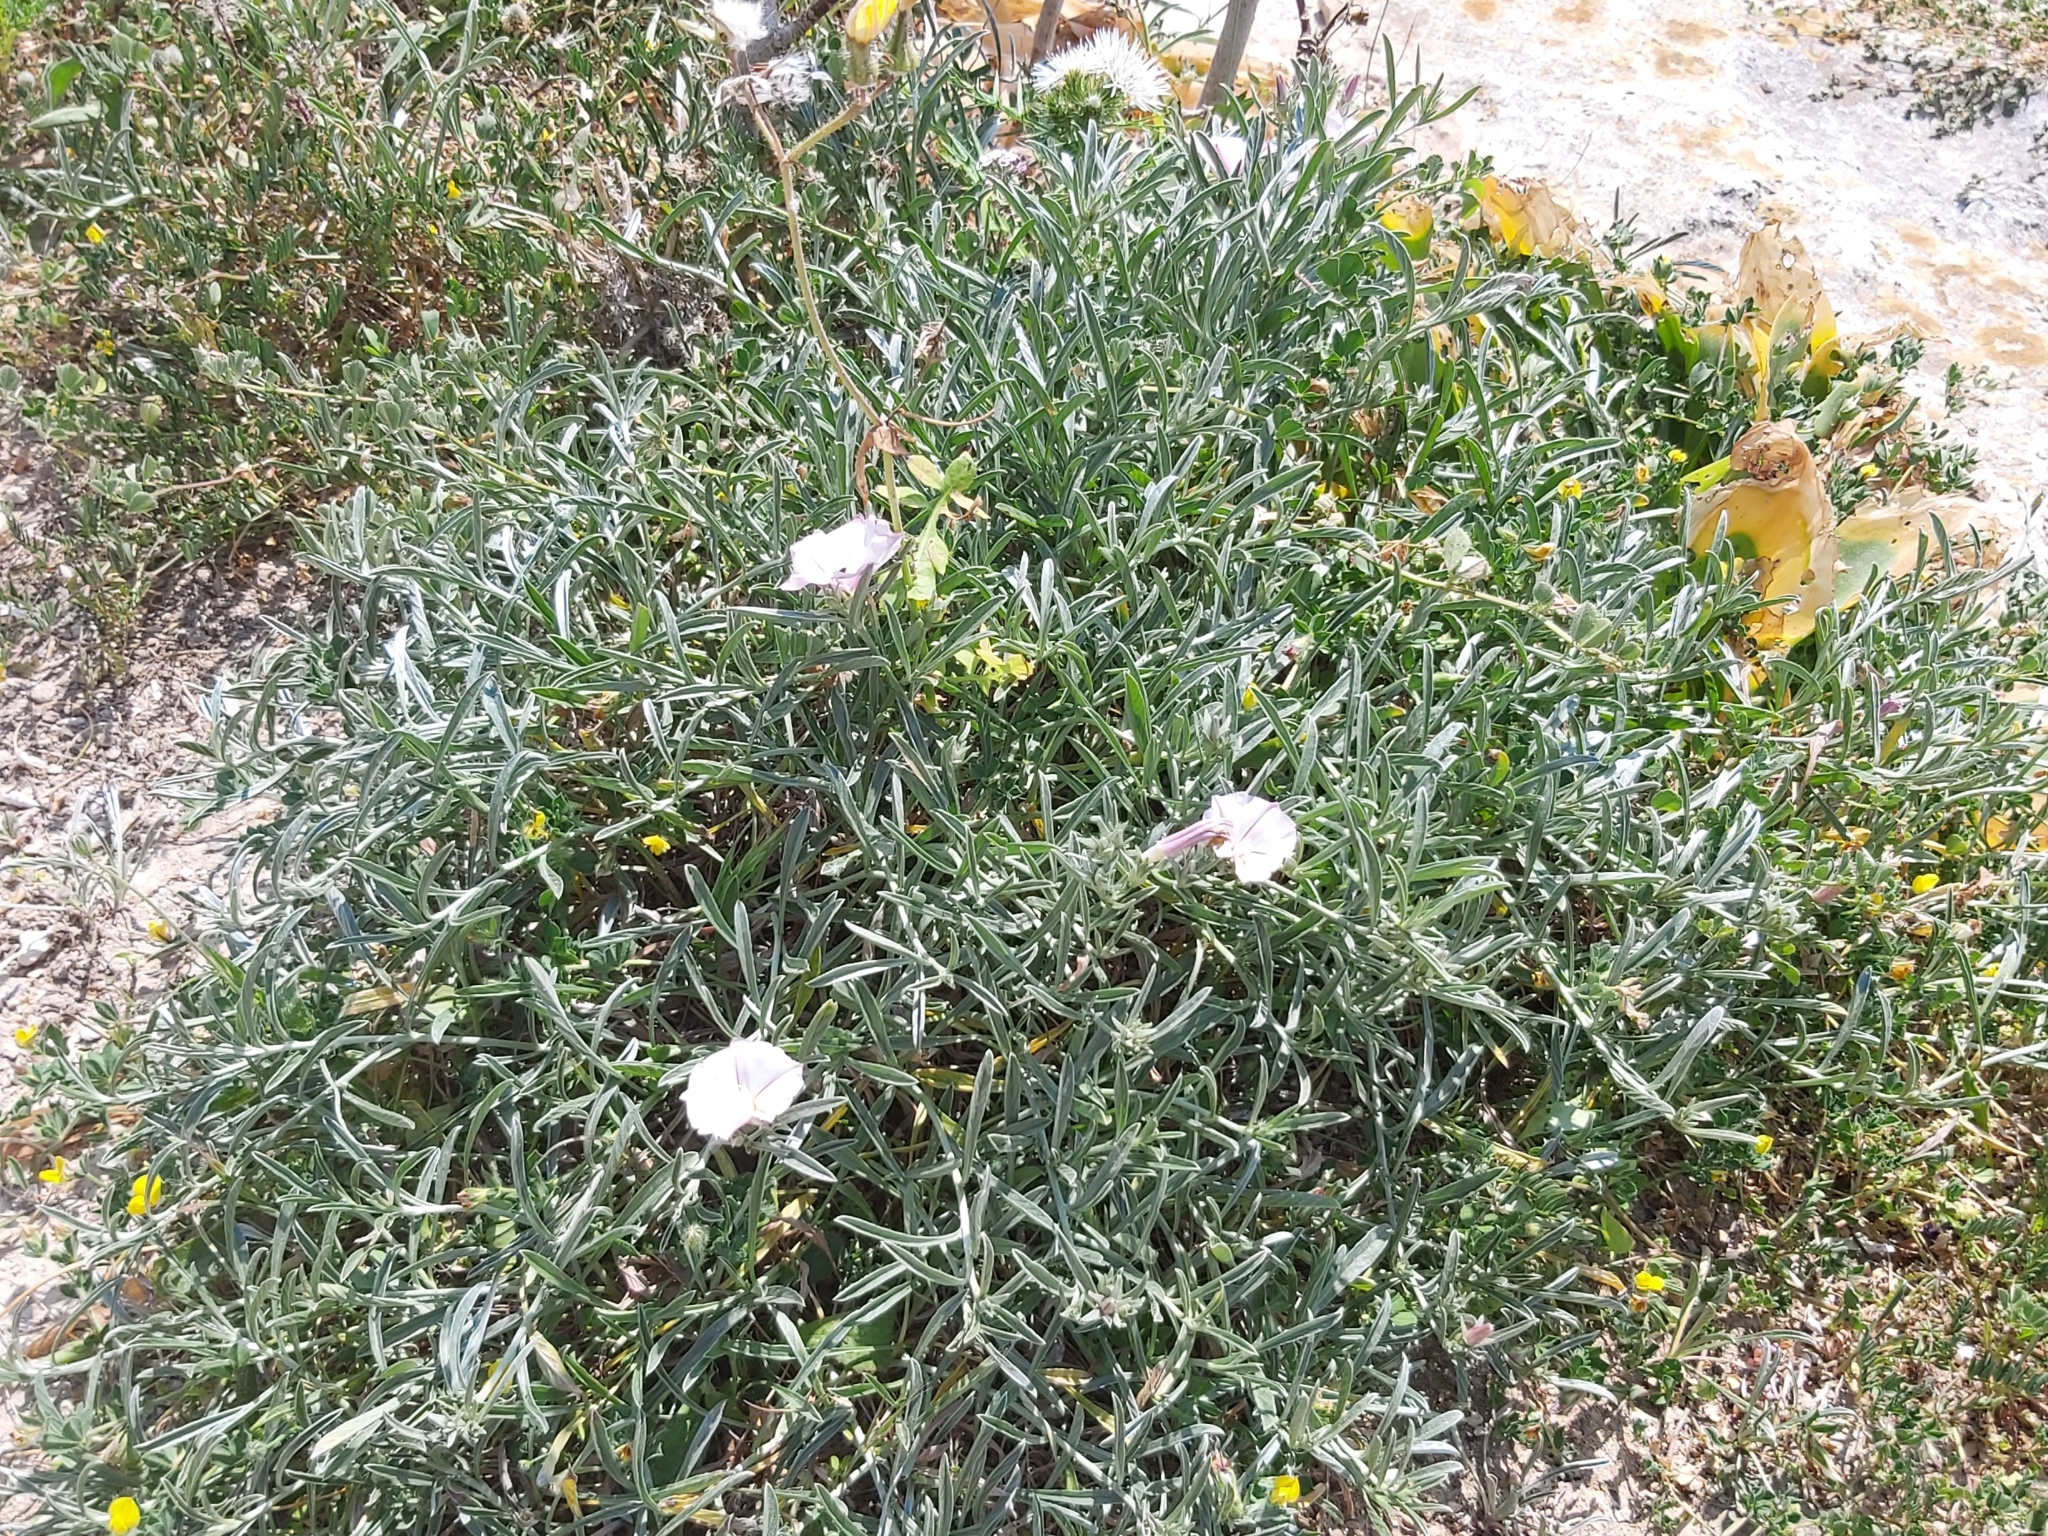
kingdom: Plantae
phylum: Tracheophyta
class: Magnoliopsida
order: Solanales
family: Convolvulaceae
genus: Convolvulus
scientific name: Convolvulus oleifolius
